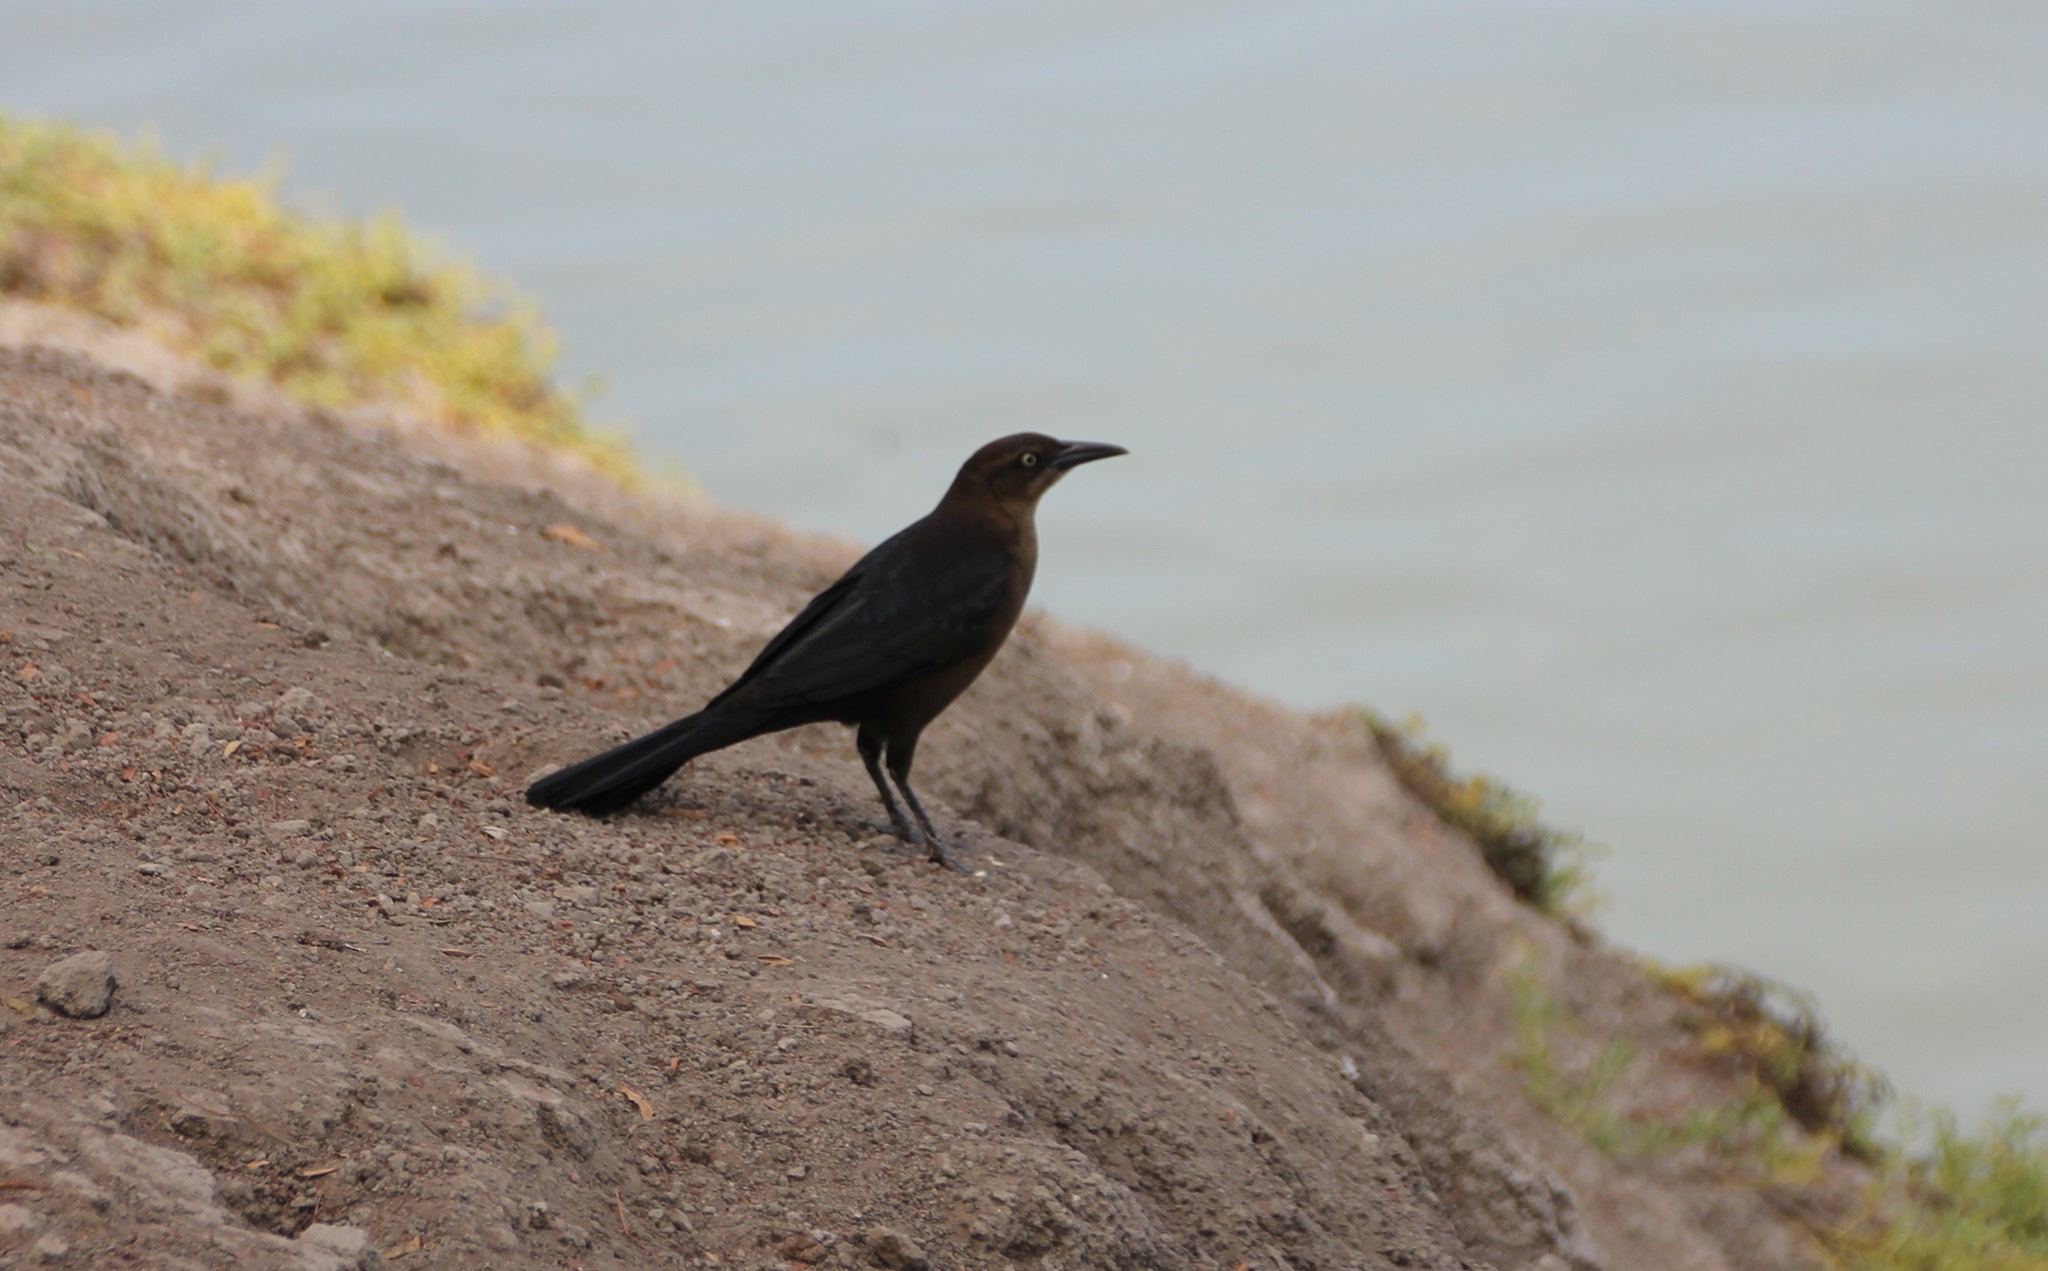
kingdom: Animalia
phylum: Chordata
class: Aves
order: Passeriformes
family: Icteridae
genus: Quiscalus
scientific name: Quiscalus mexicanus
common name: Great-tailed grackle
